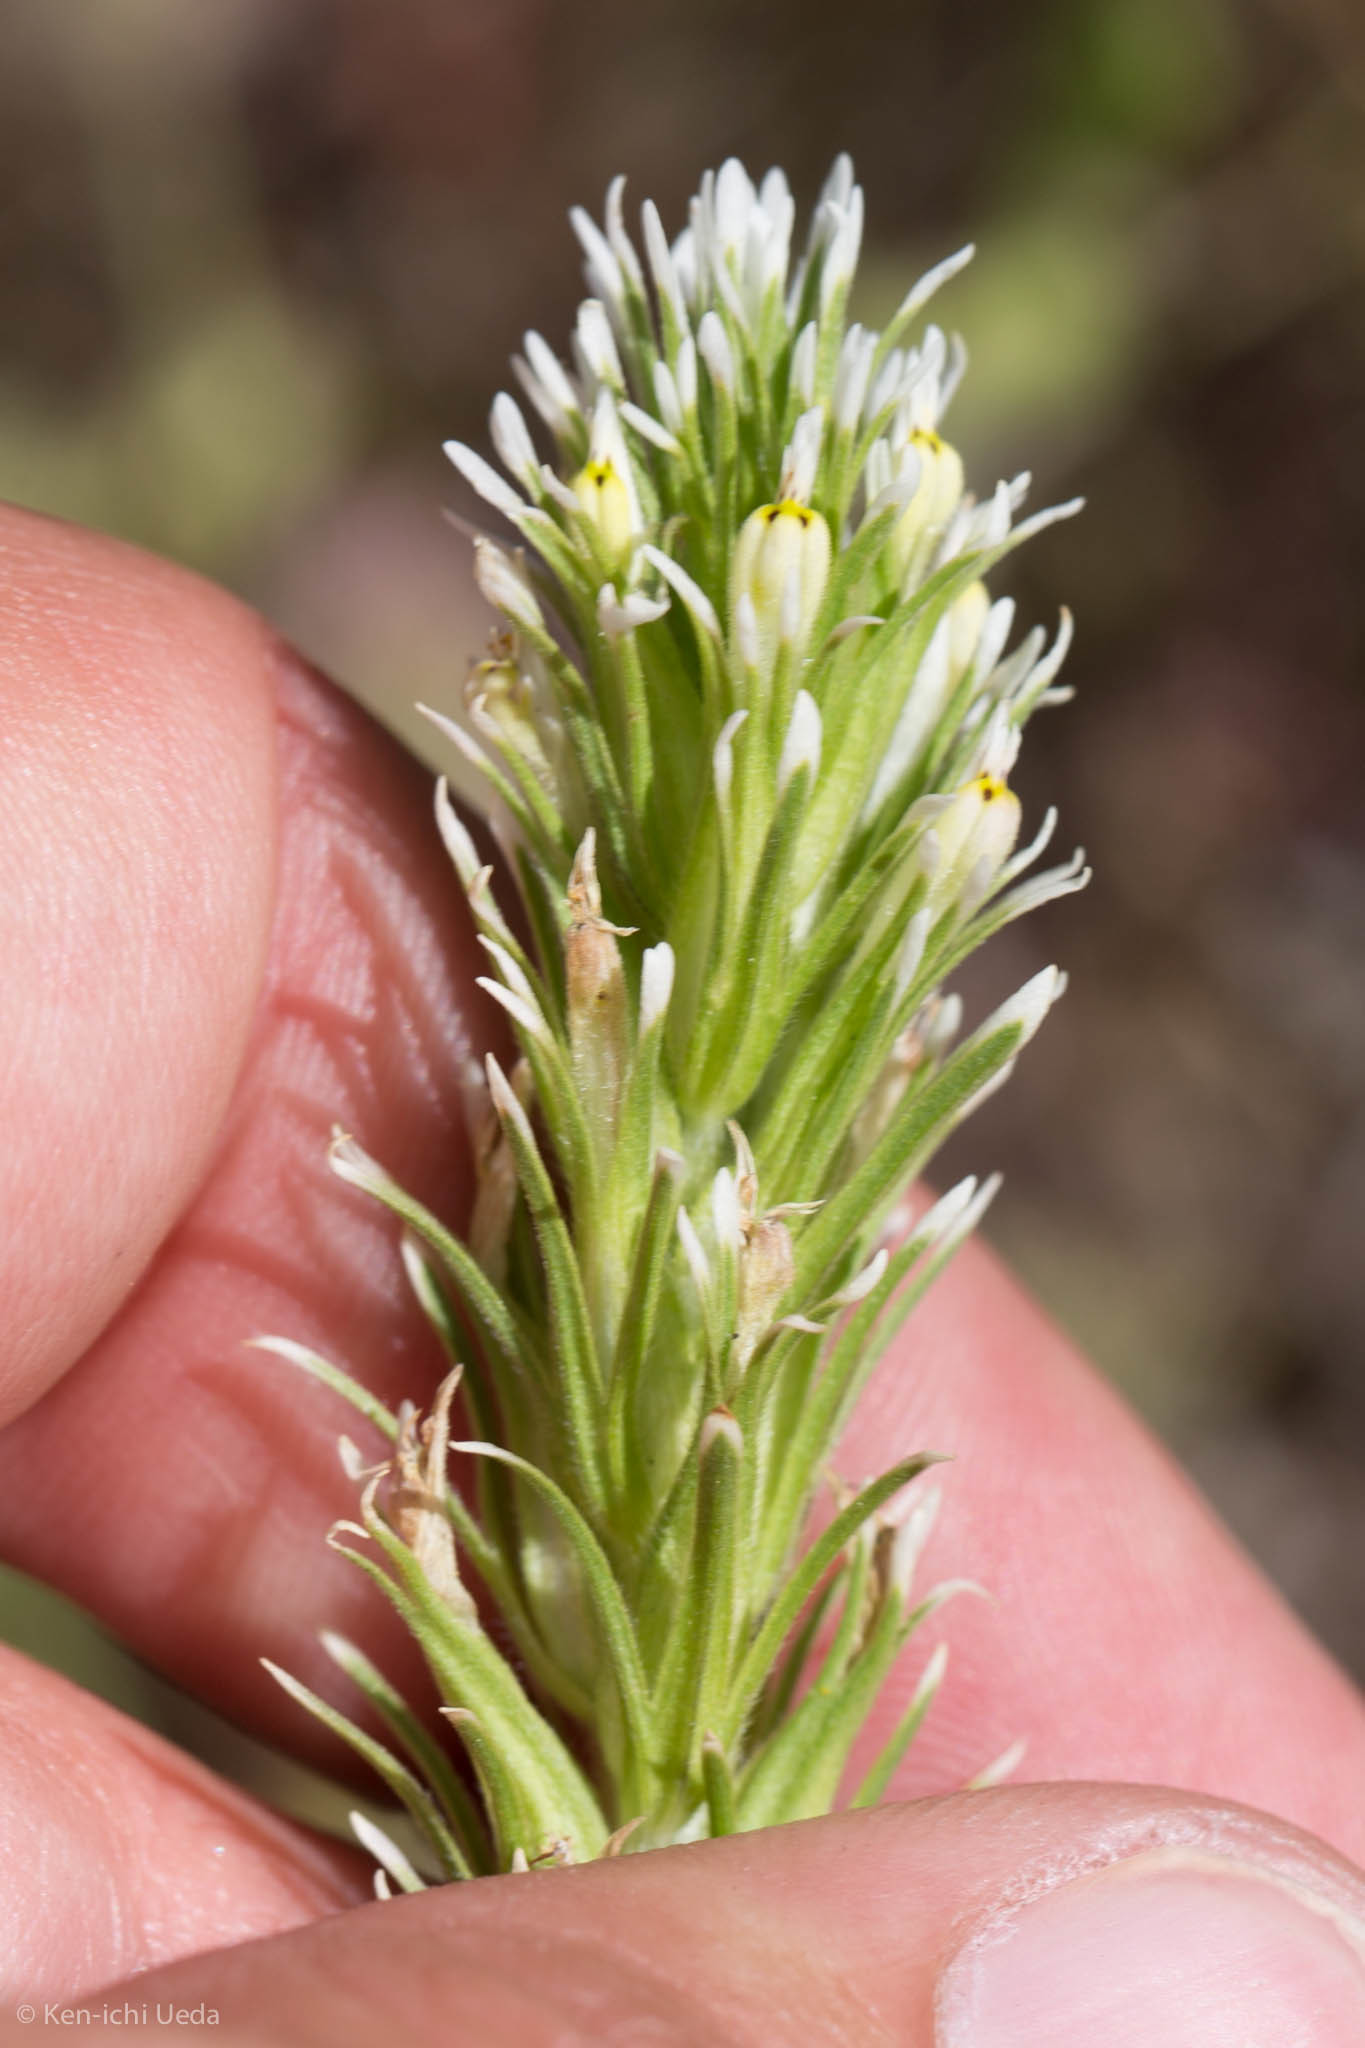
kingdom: Plantae
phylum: Tracheophyta
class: Magnoliopsida
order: Lamiales
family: Orobanchaceae
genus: Castilleja
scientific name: Castilleja attenuata
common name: Valley tassels
